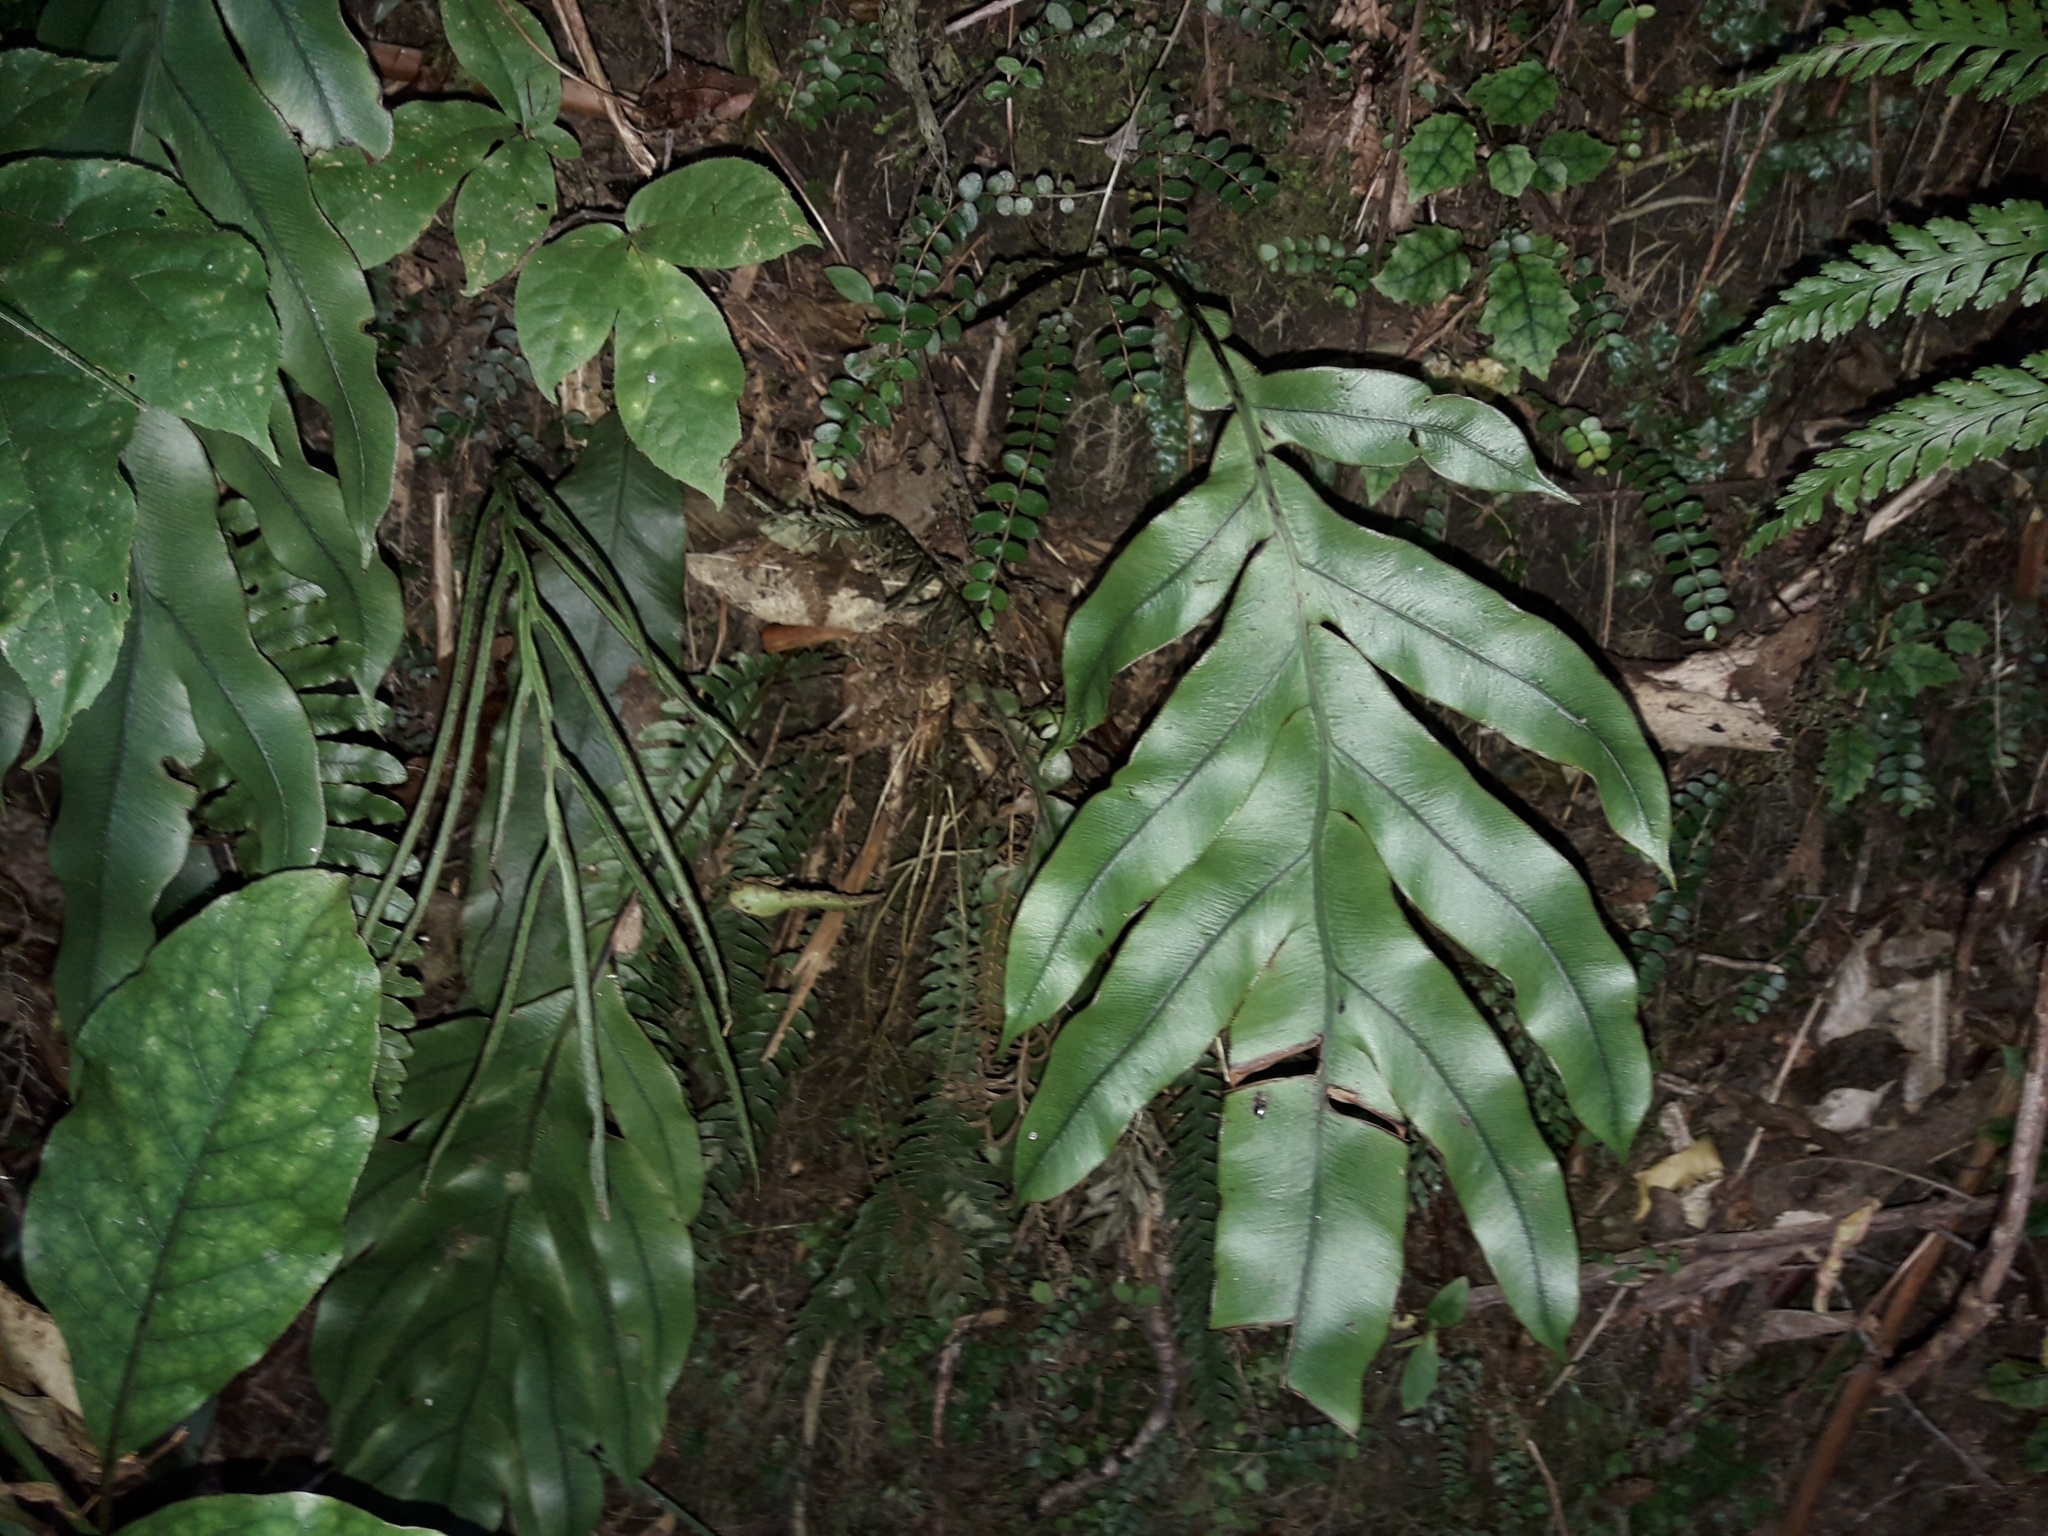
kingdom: Plantae
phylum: Tracheophyta
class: Polypodiopsida
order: Polypodiales
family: Blechnaceae
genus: Austroblechnum
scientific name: Austroblechnum colensoi
